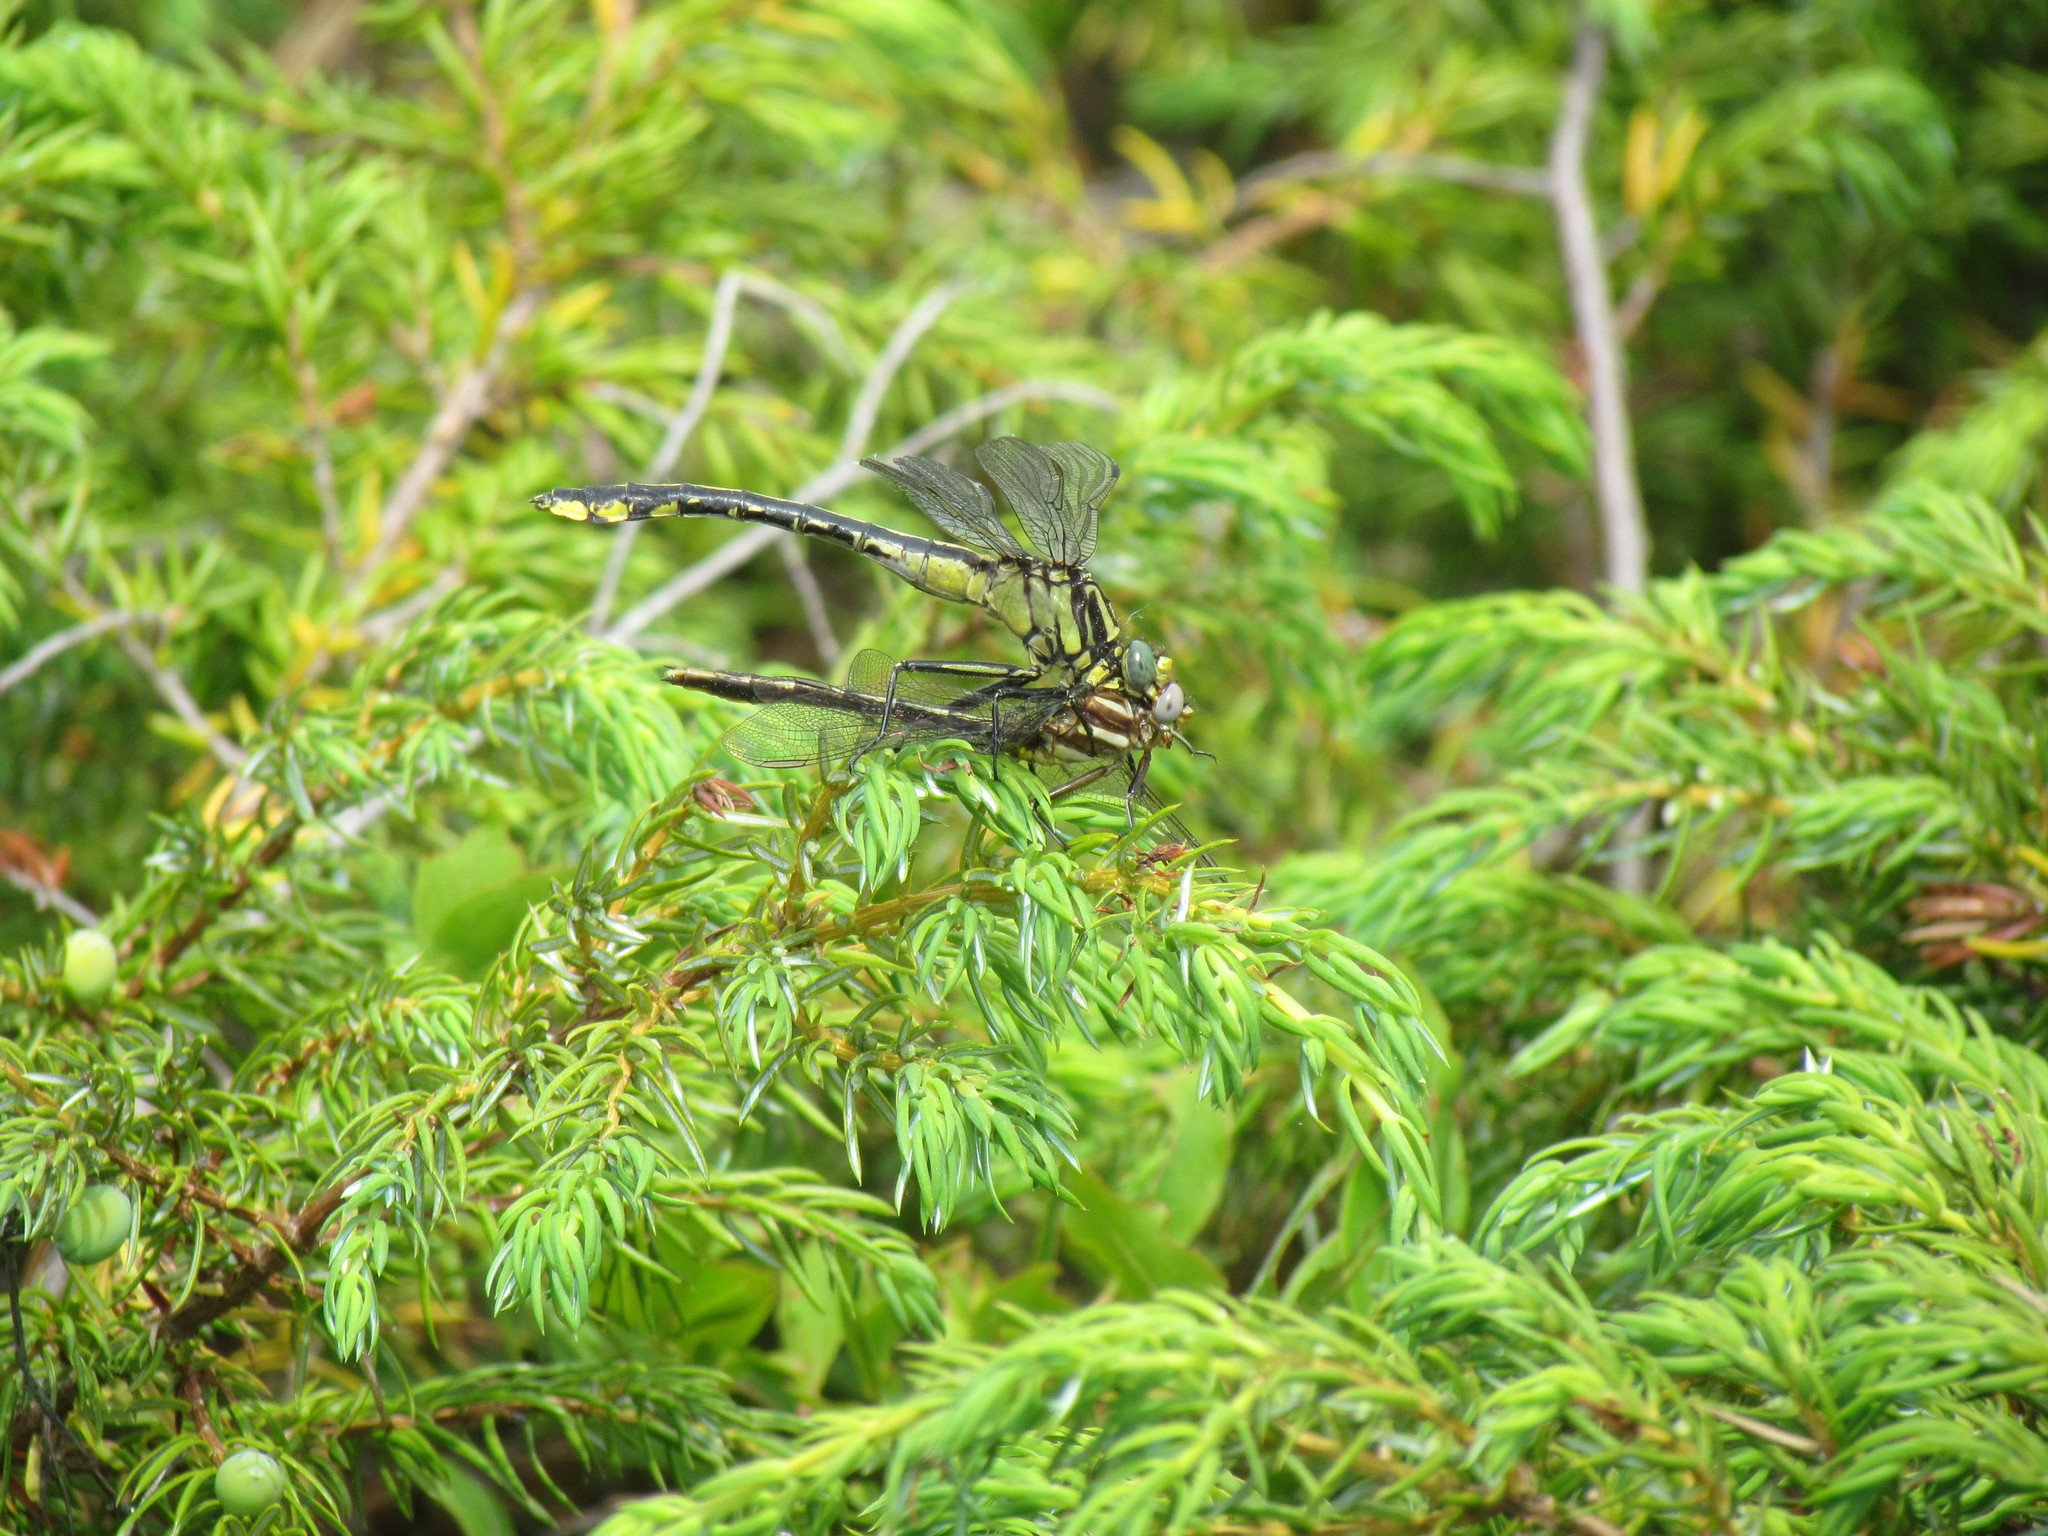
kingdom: Animalia
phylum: Arthropoda
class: Insecta
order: Odonata
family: Gomphidae
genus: Gomphurus
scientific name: Gomphurus fraternus
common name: Midland clubtail
